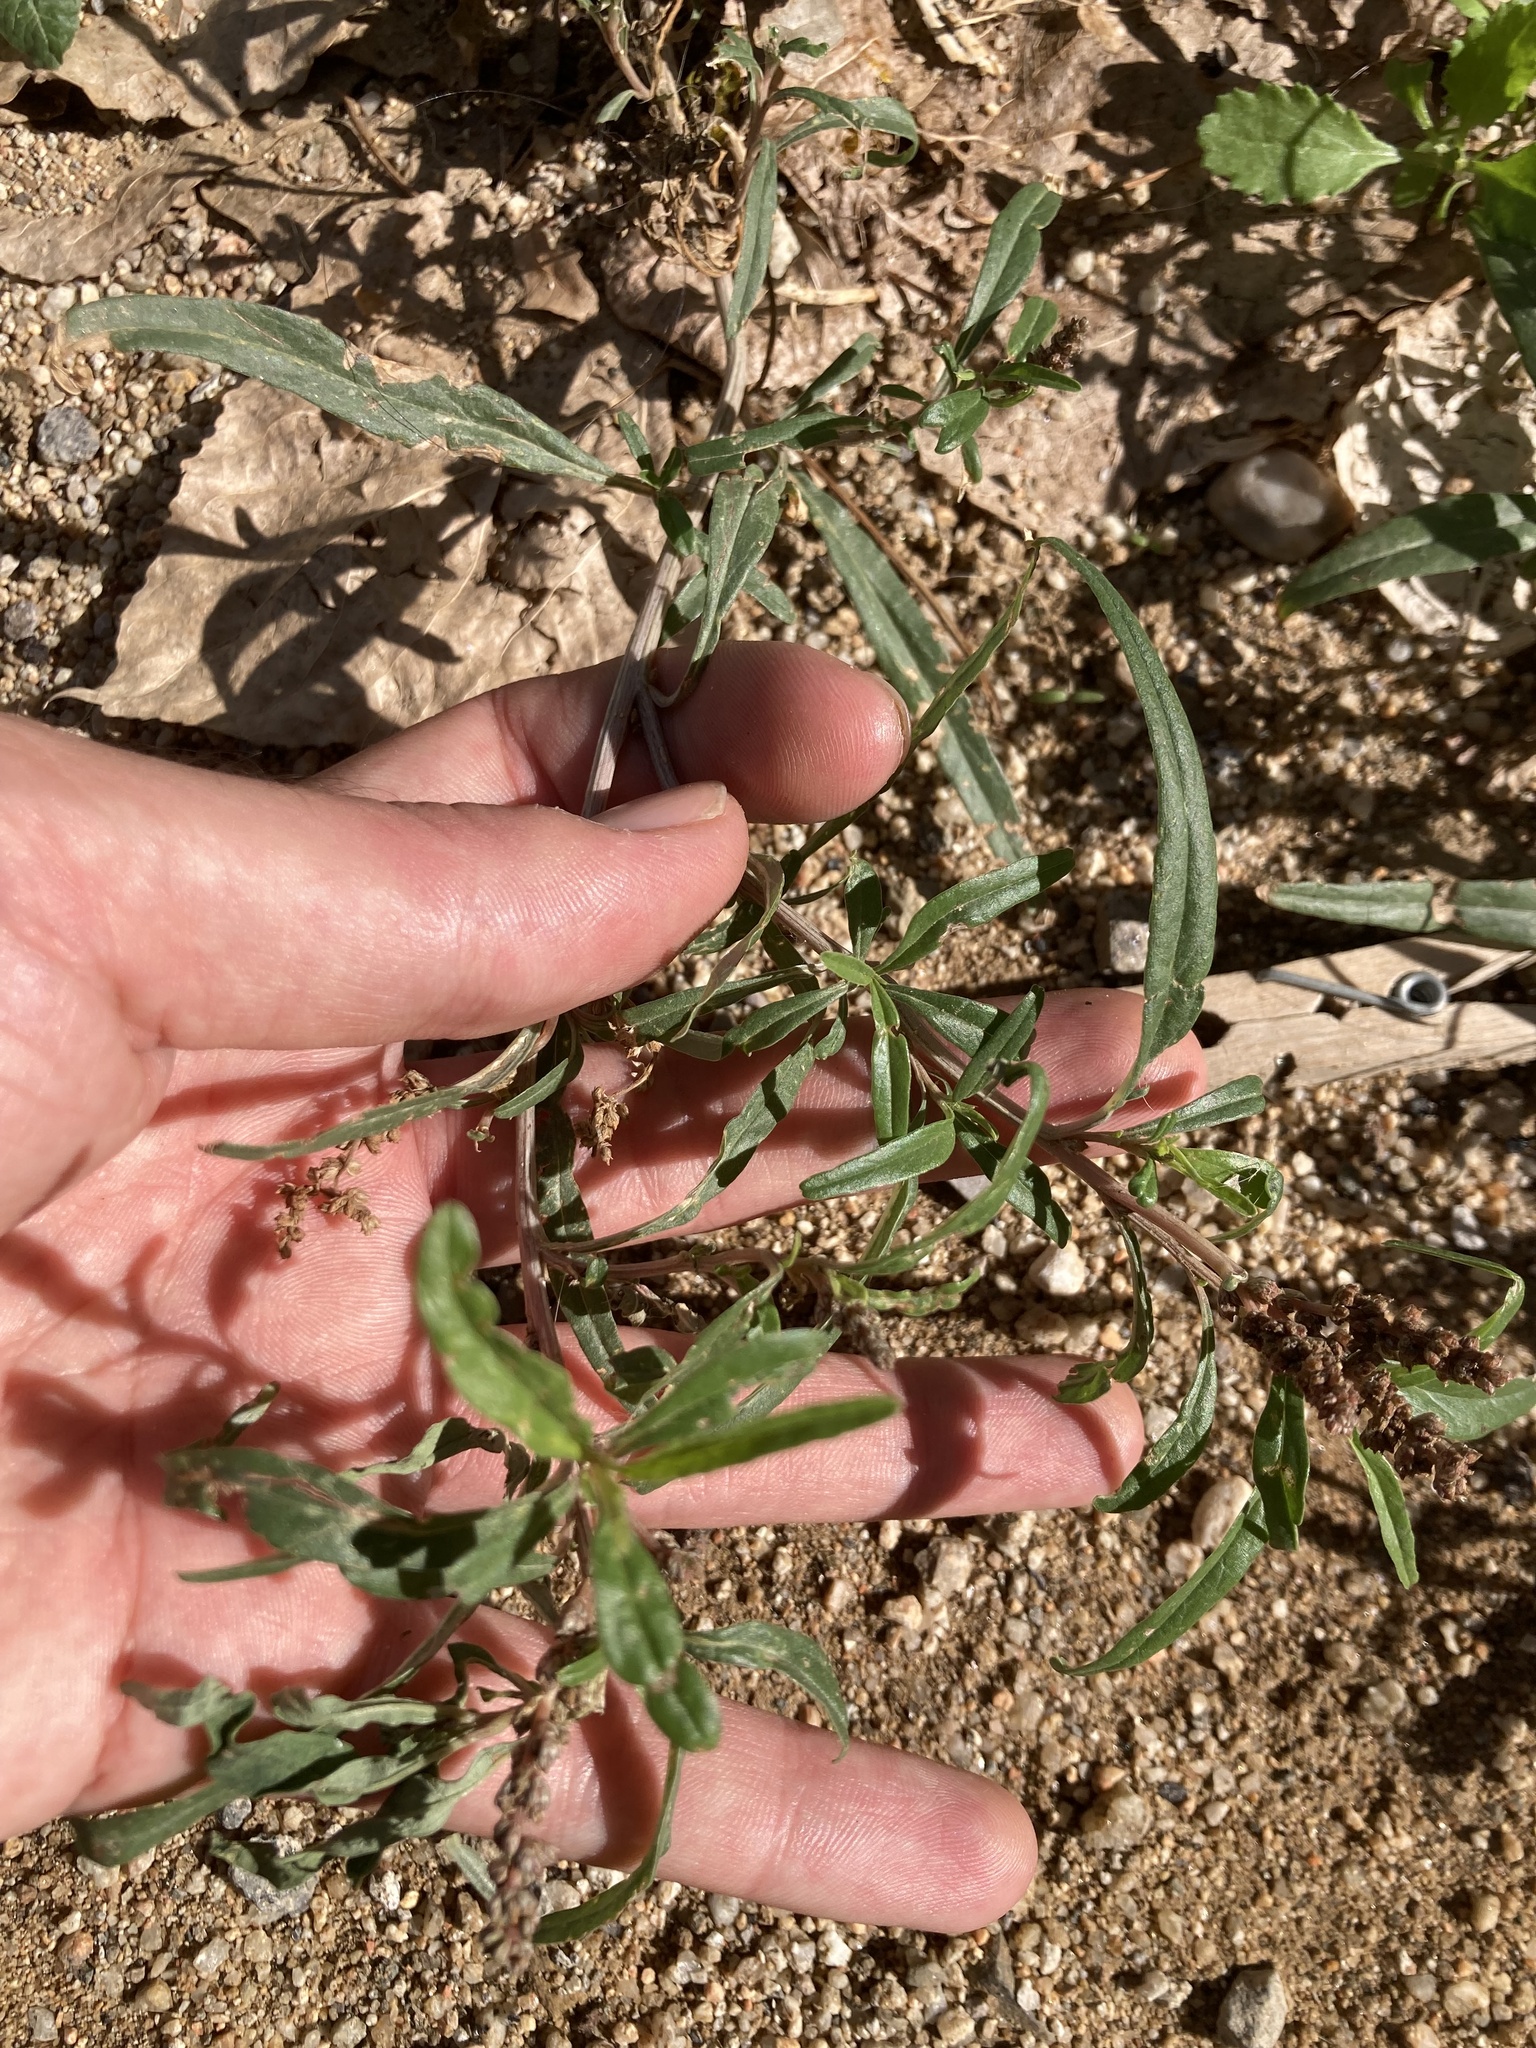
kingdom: Plantae
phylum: Tracheophyta
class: Magnoliopsida
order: Caryophyllales
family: Amaranthaceae
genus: Amaranthus
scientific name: Amaranthus muricatus
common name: African amaranth
